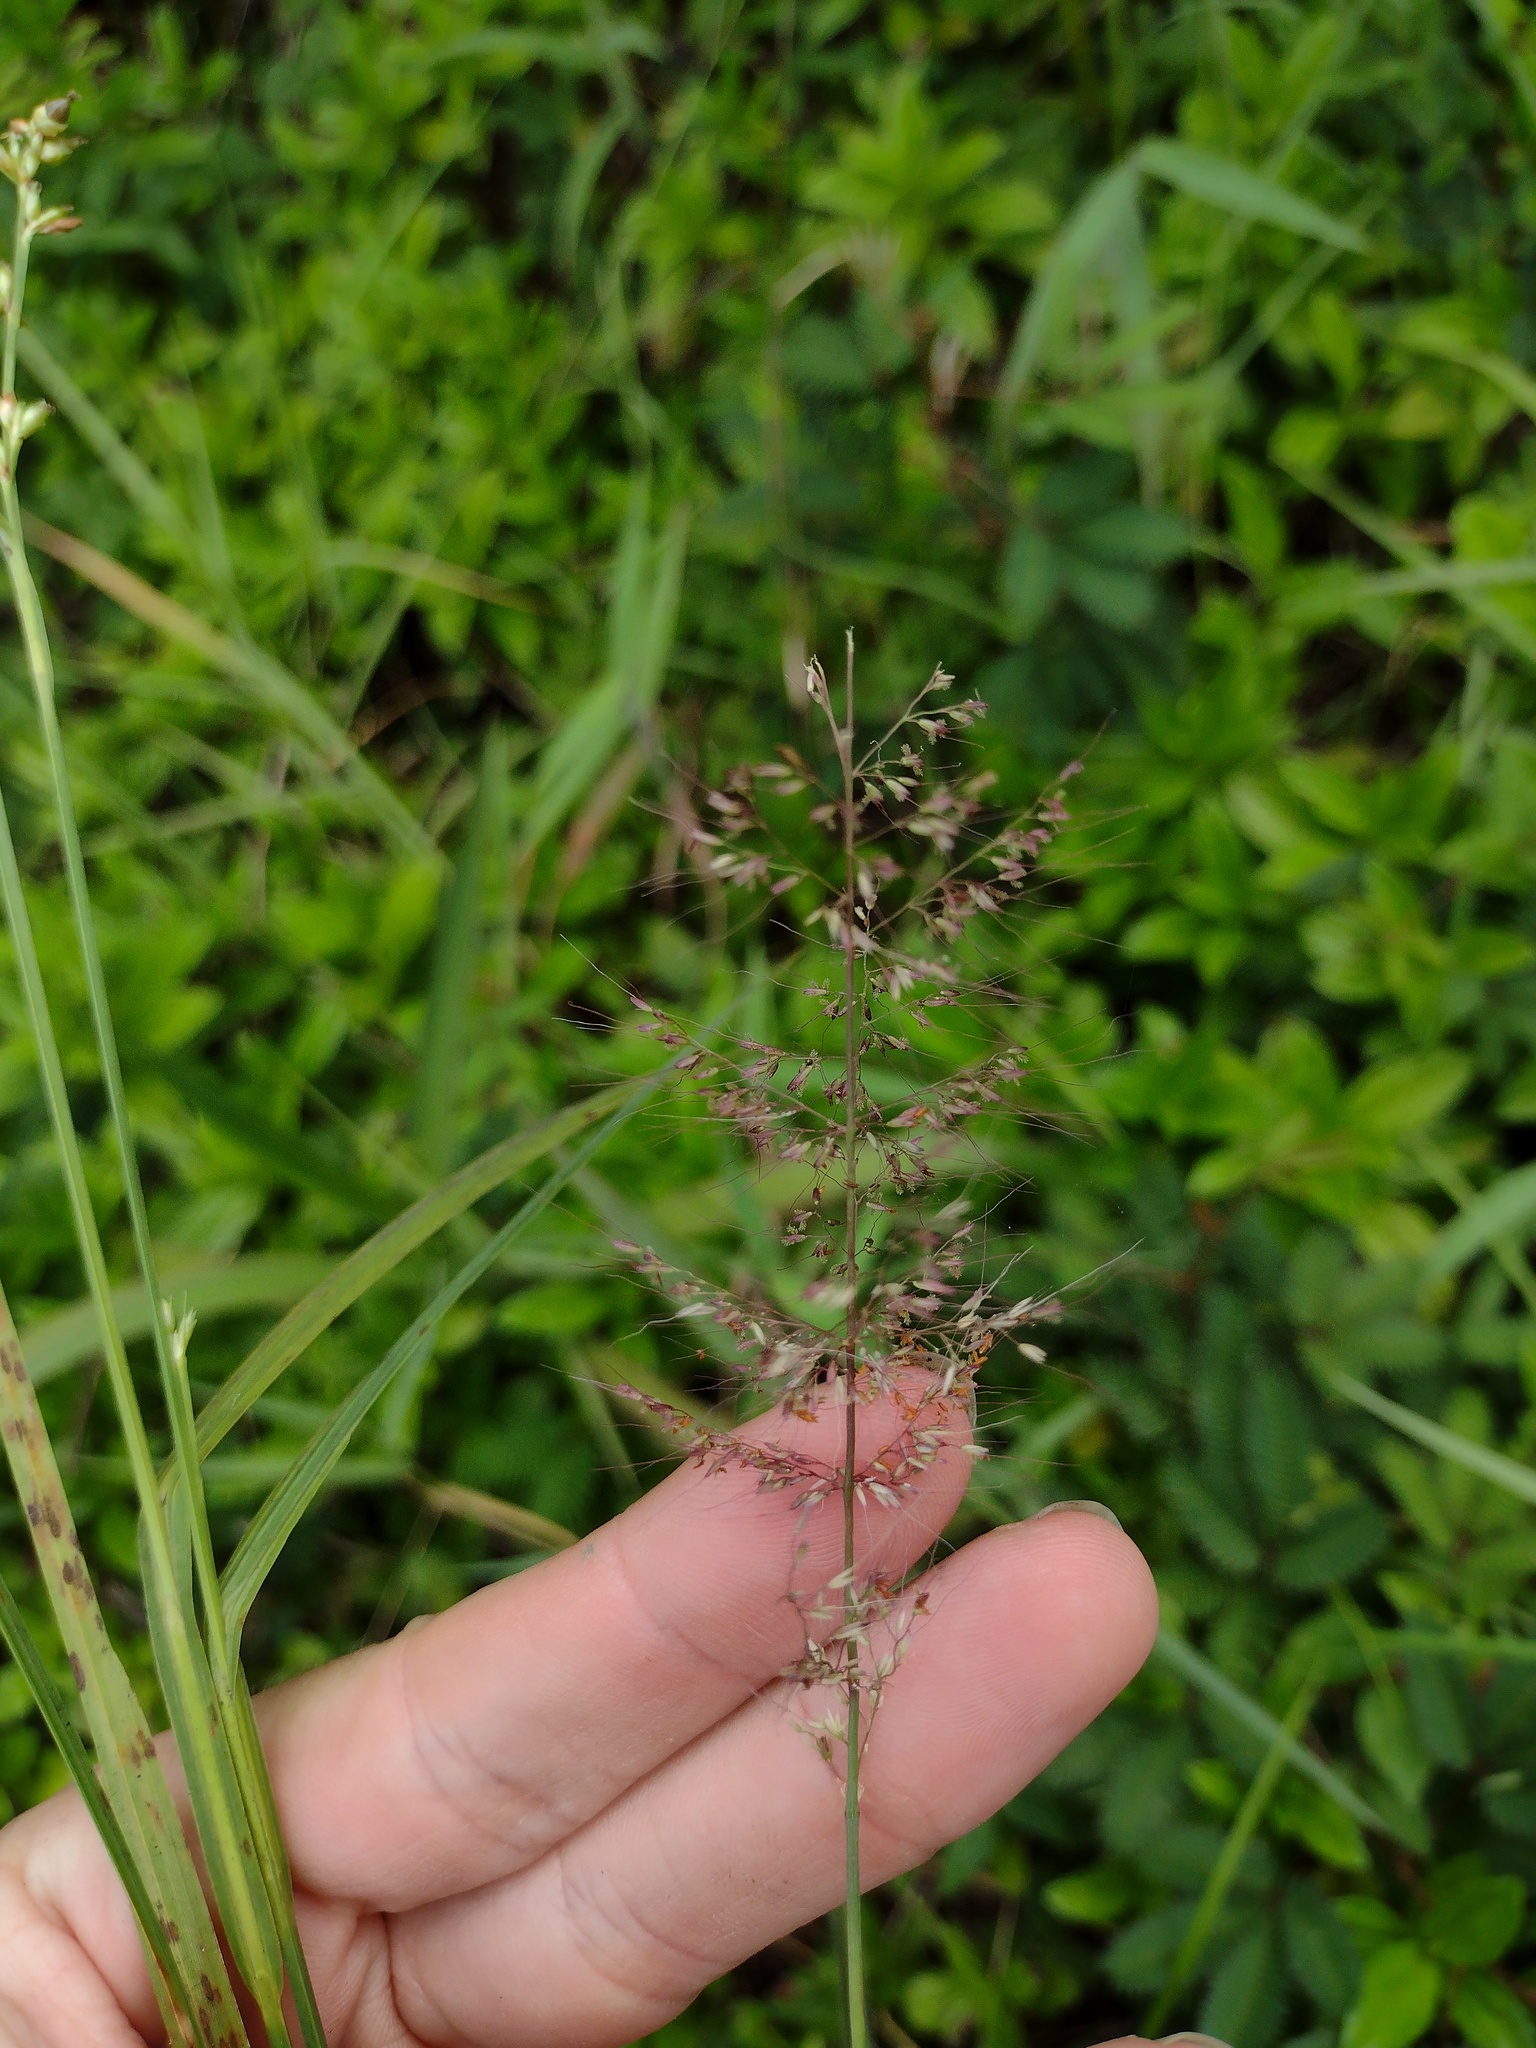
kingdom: Plantae
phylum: Tracheophyta
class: Liliopsida
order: Poales
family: Poaceae
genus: Melinis
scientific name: Melinis minutiflora
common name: Molassesgrass
